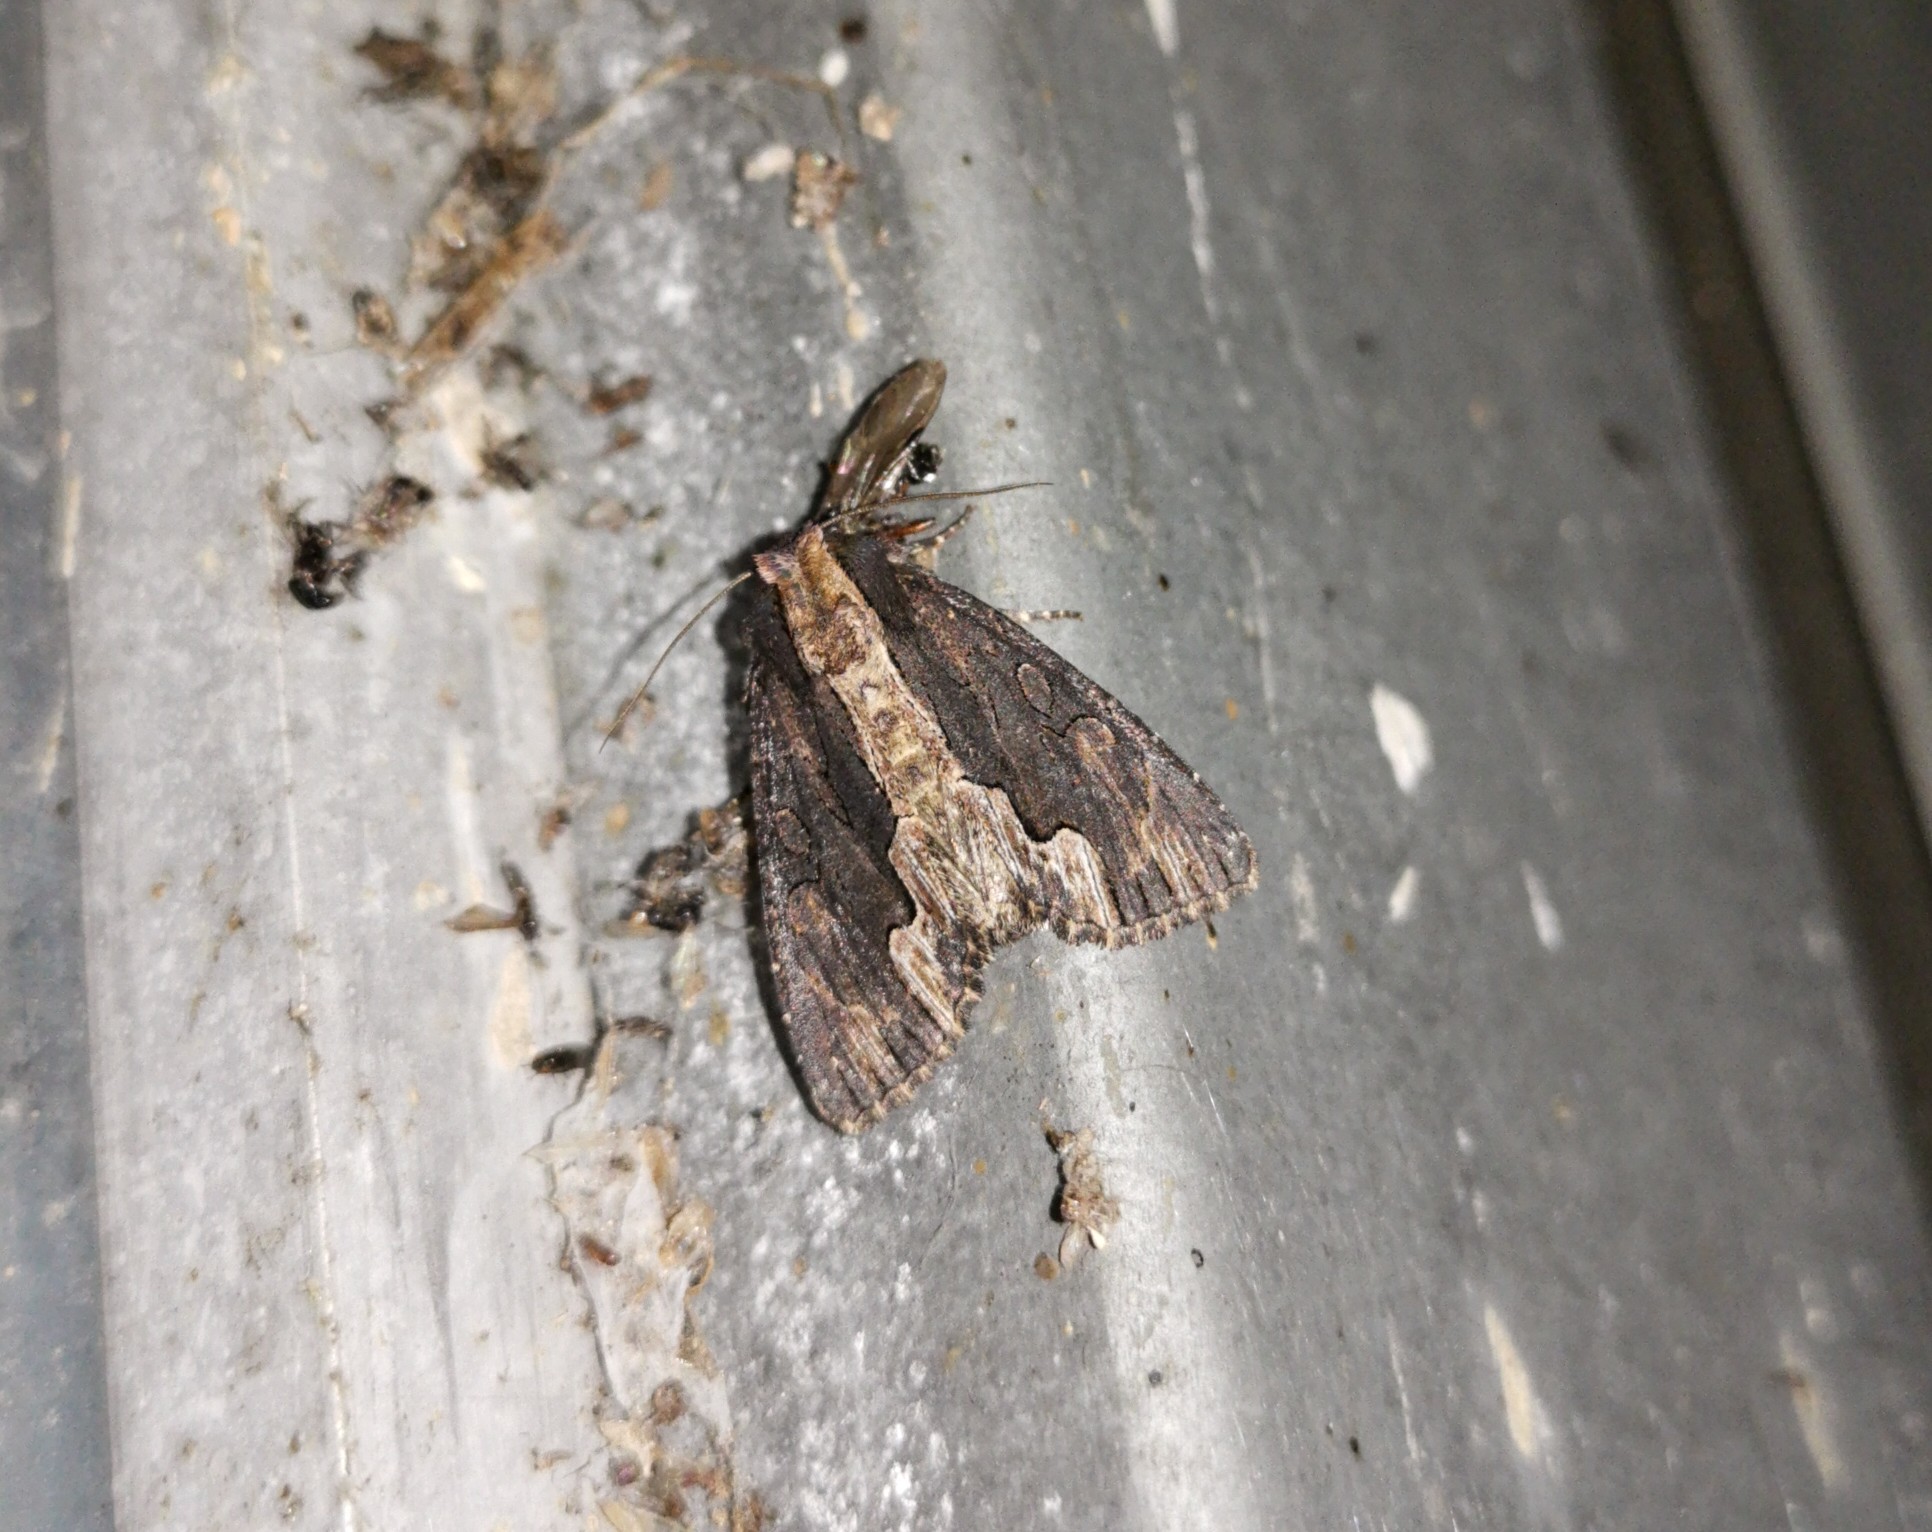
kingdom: Animalia
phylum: Arthropoda
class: Insecta
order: Lepidoptera
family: Noctuidae
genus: Dypterygia
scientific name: Dypterygia scabriuscula
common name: Bird's wing
